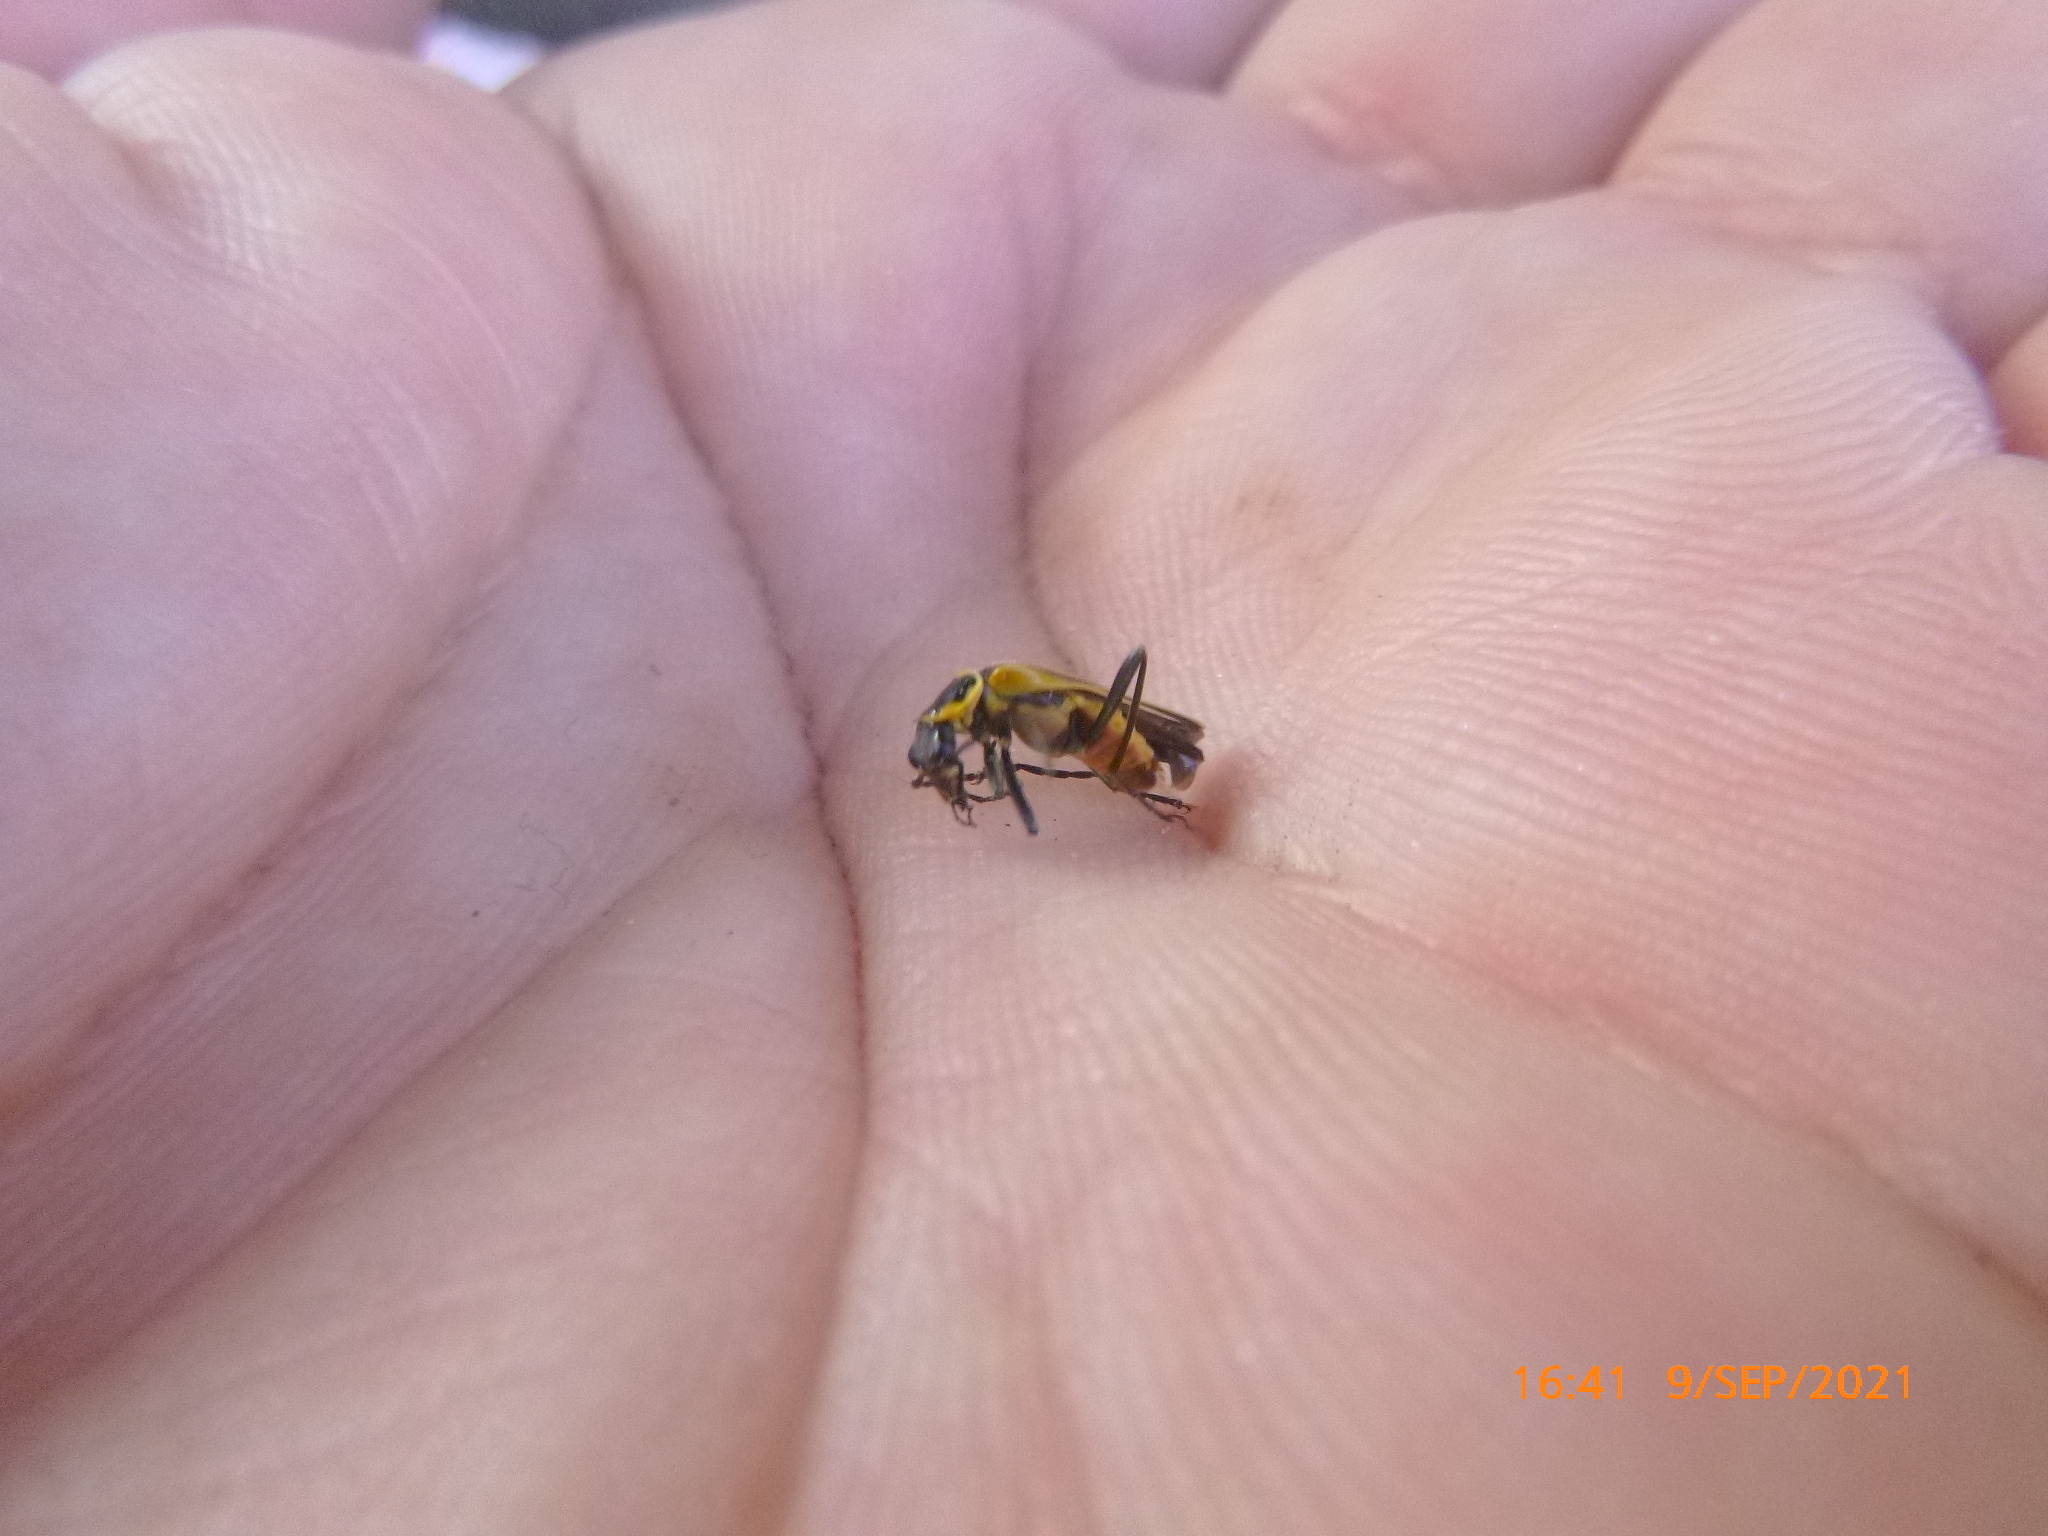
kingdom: Animalia
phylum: Arthropoda
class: Insecta
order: Coleoptera
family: Cantharidae
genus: Chauliognathus
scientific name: Chauliognathus lewisi
